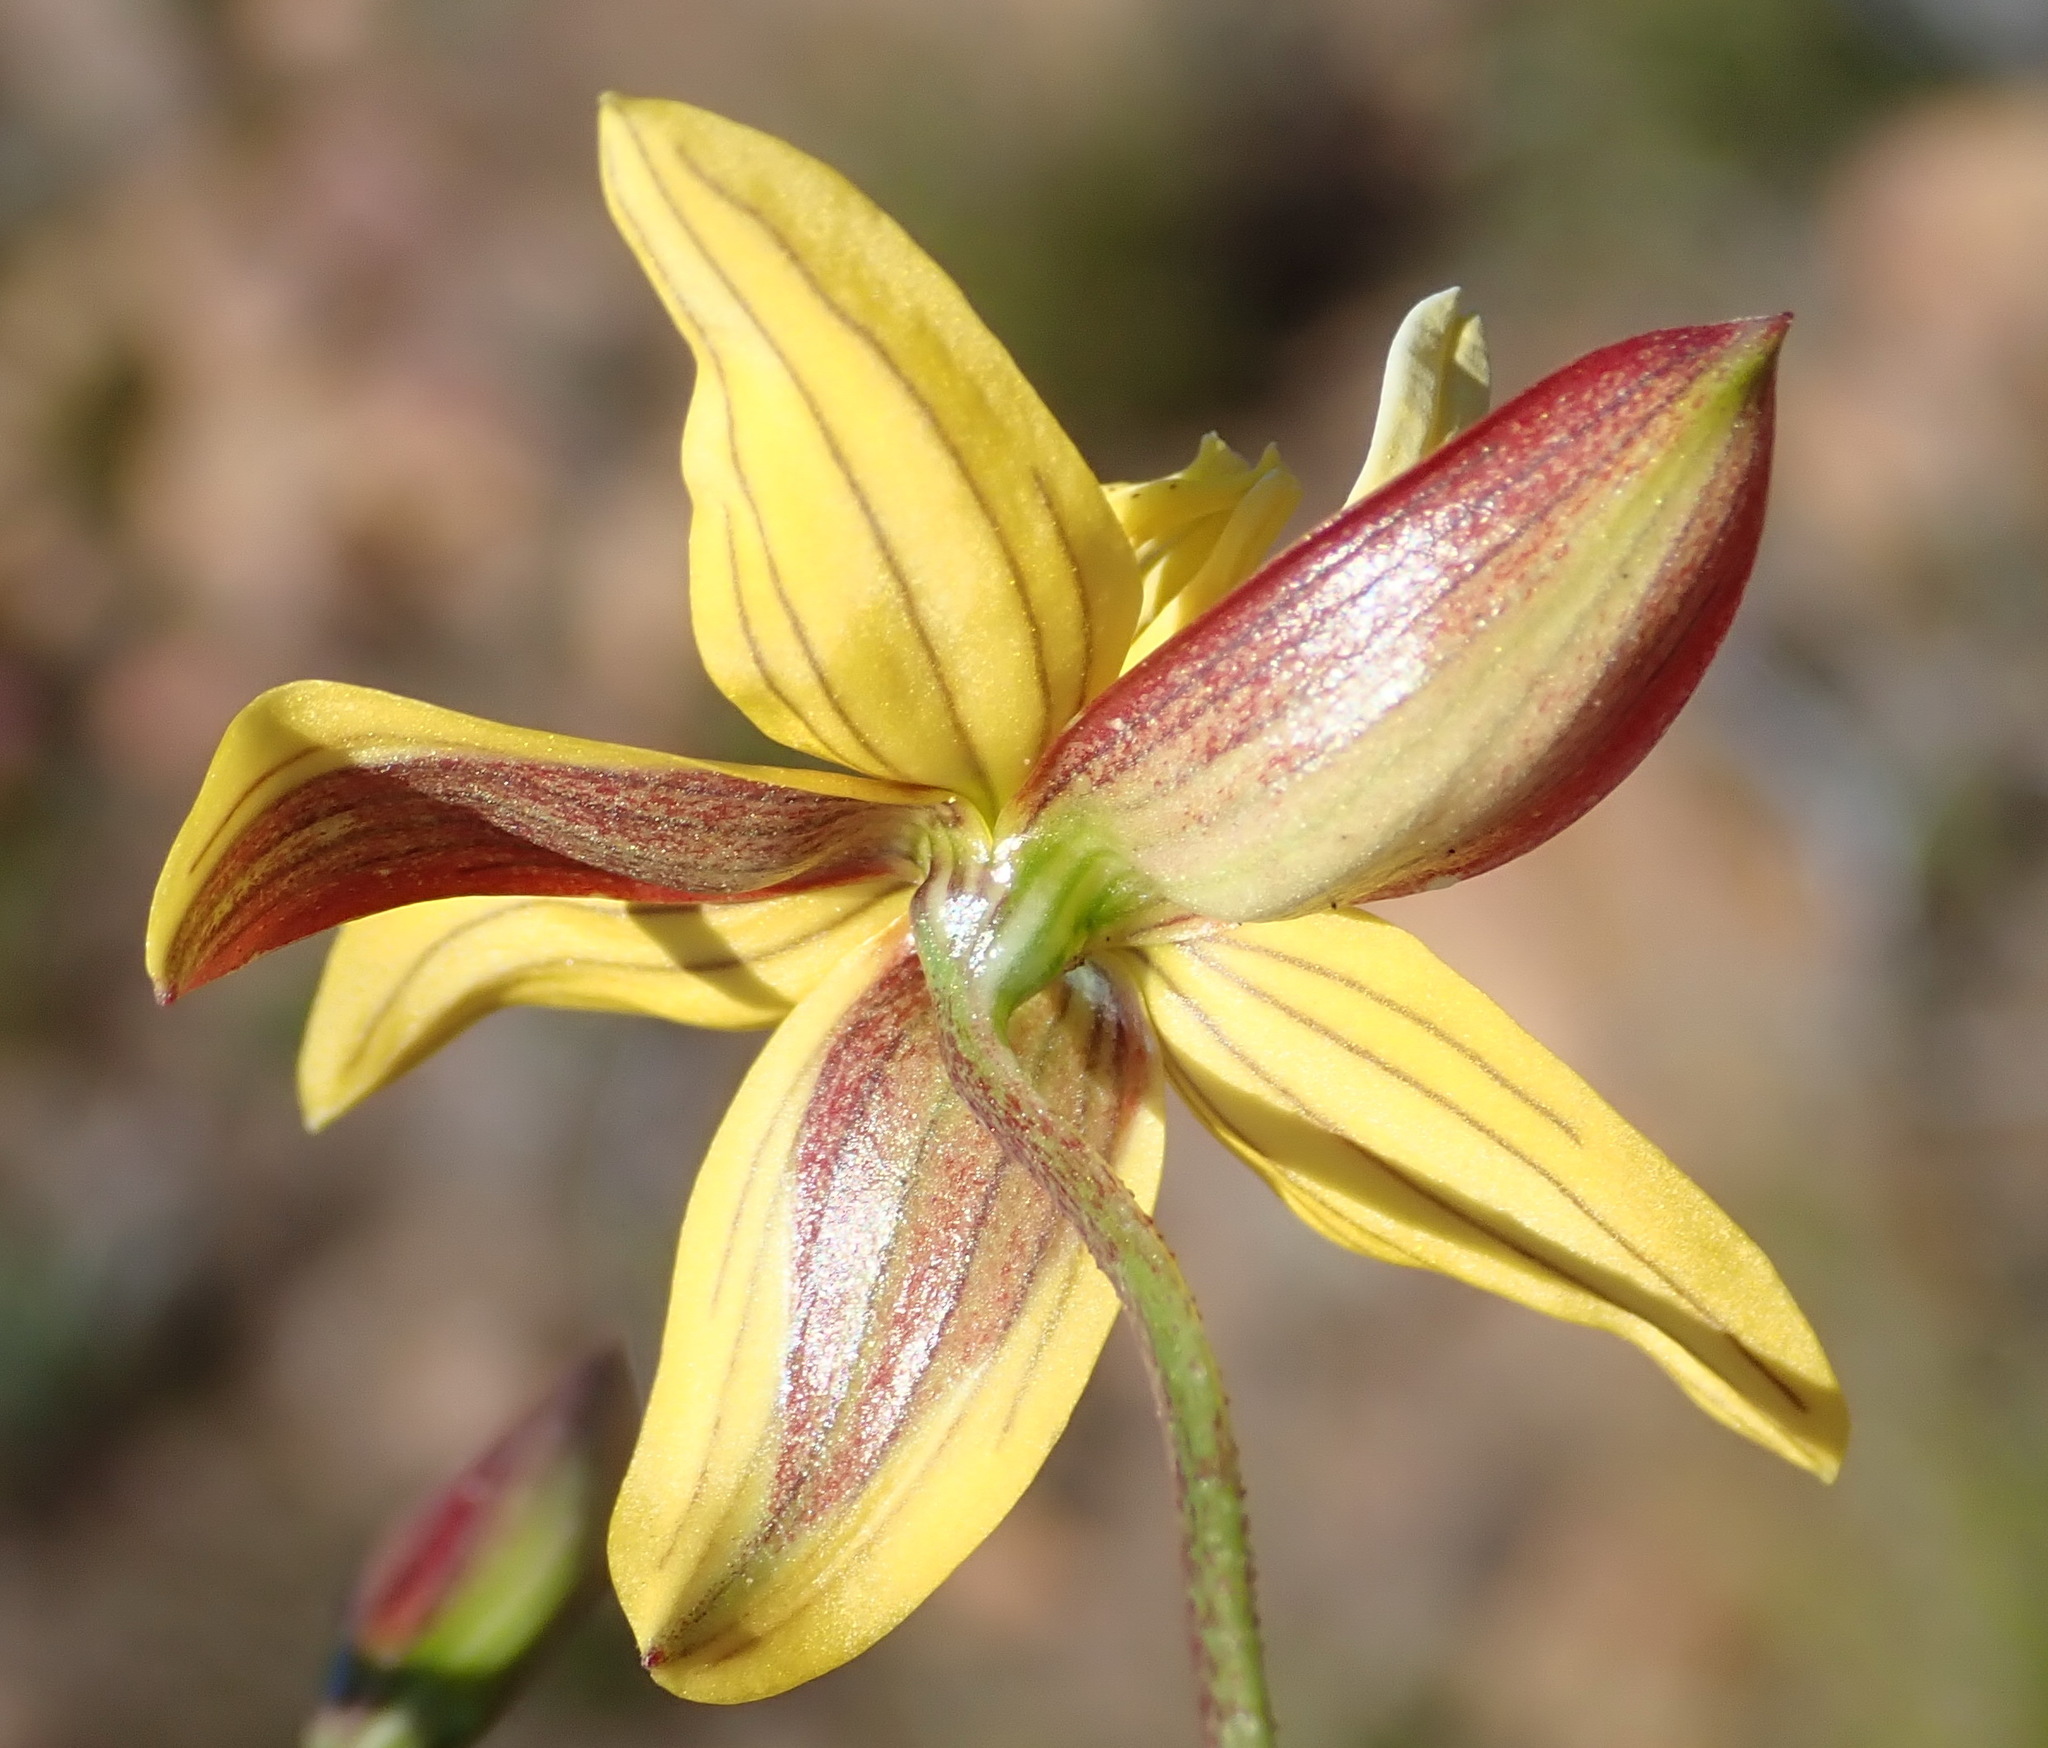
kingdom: Plantae
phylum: Tracheophyta
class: Liliopsida
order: Asparagales
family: Tecophilaeaceae
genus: Cyanella
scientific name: Cyanella lutea
